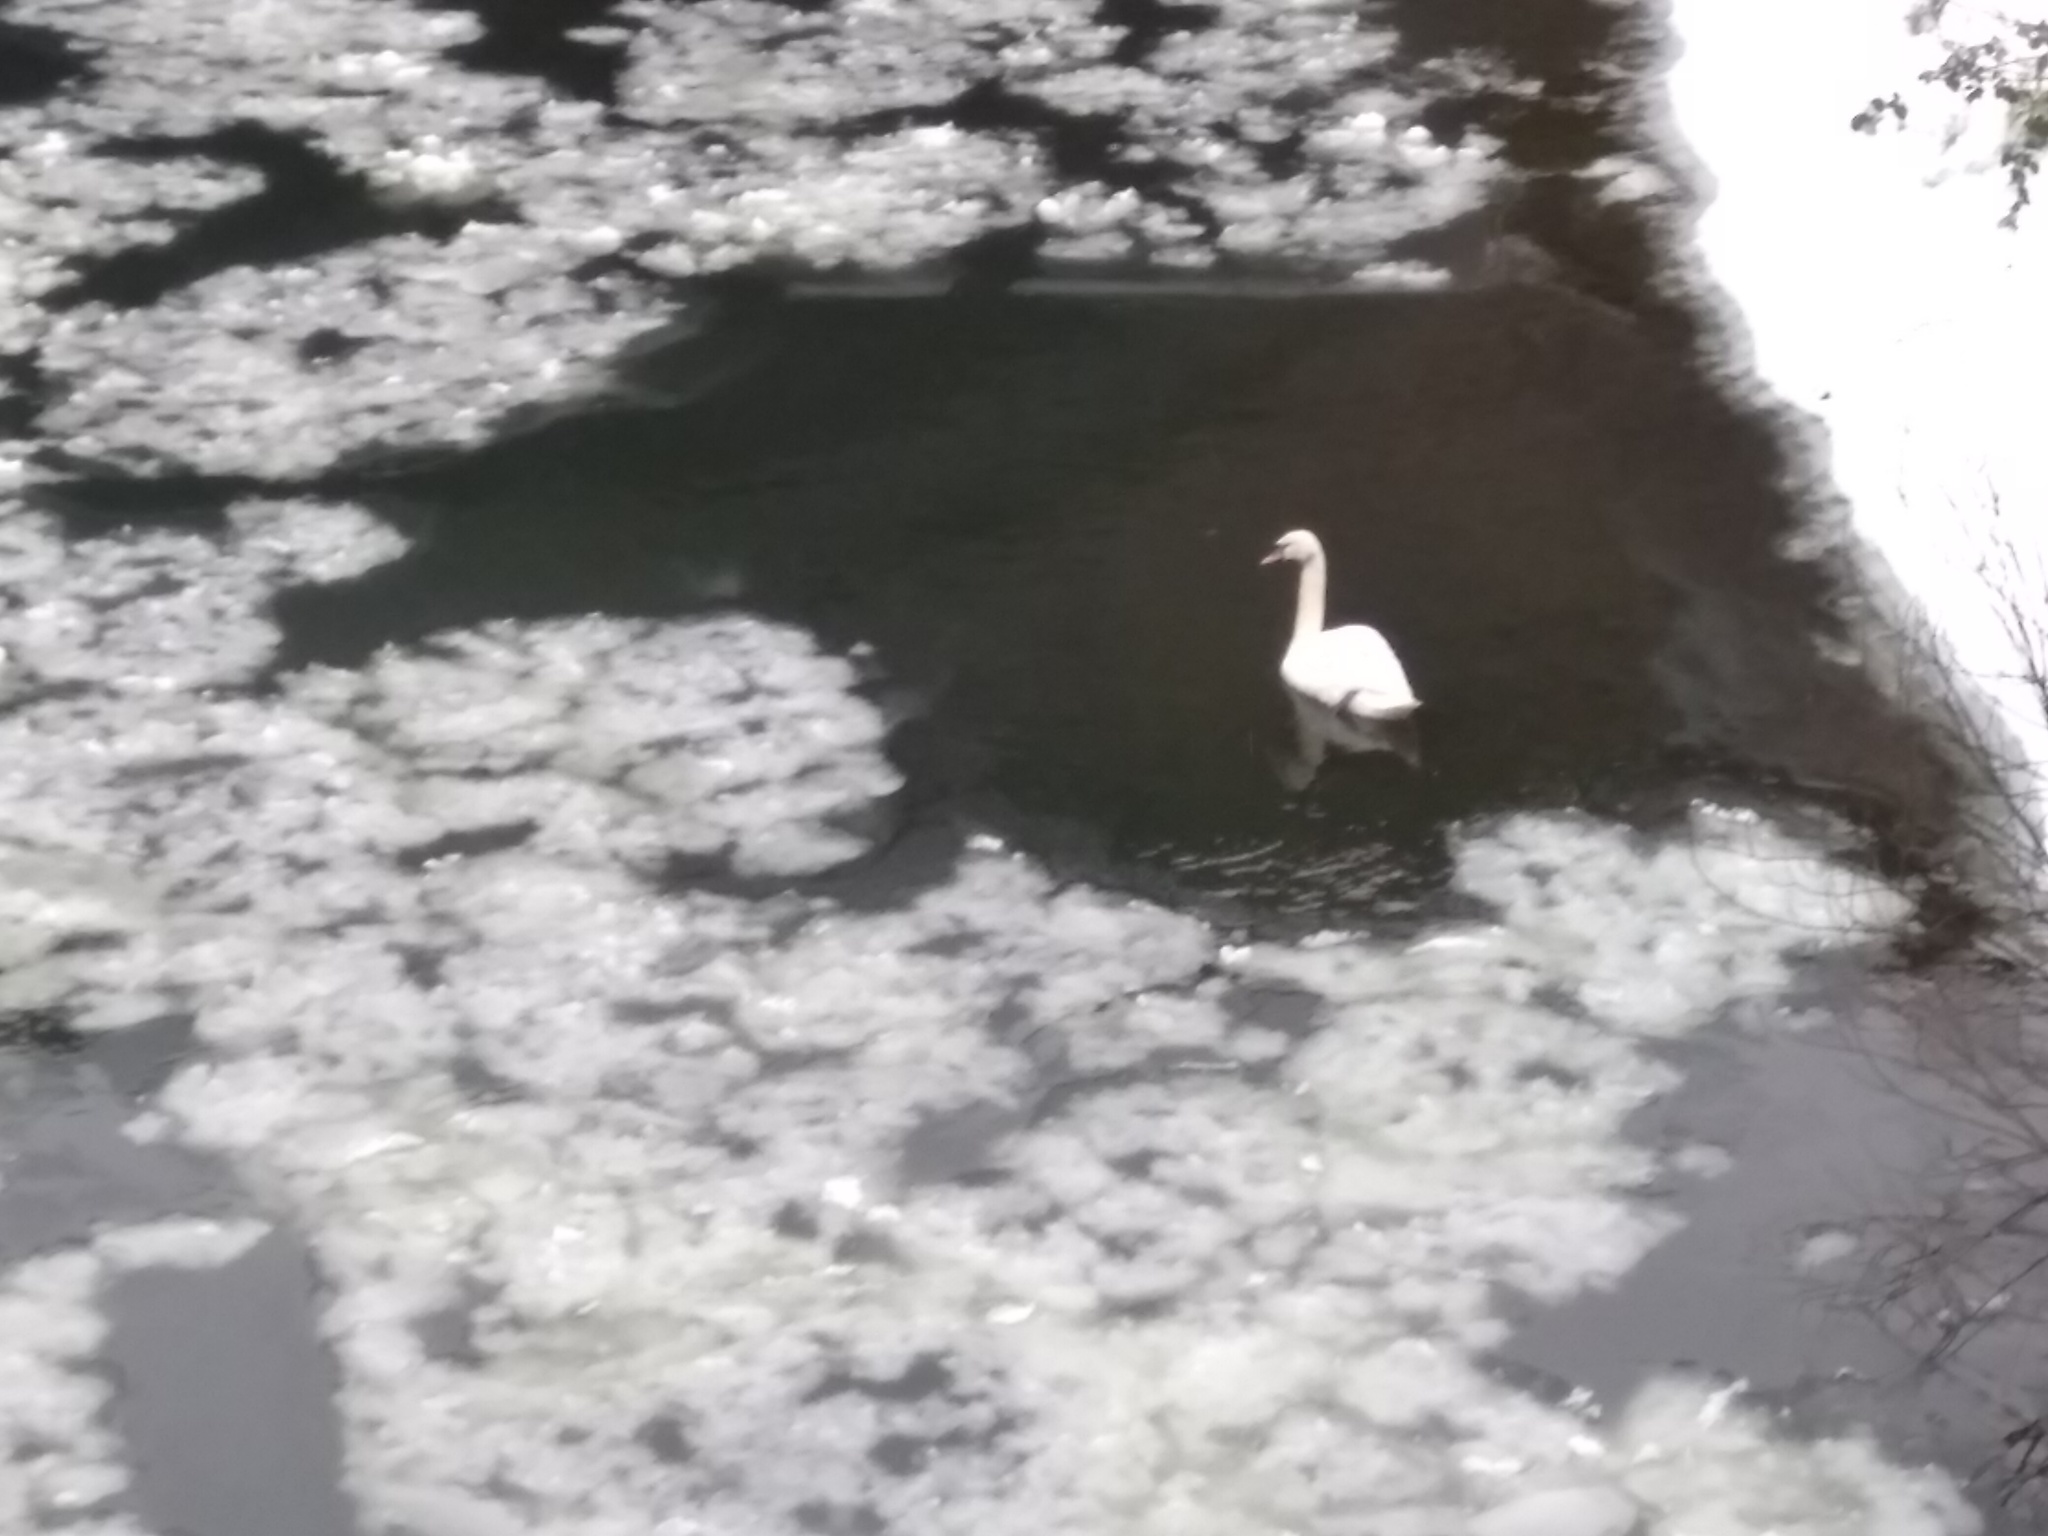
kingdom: Animalia
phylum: Chordata
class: Aves
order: Anseriformes
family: Anatidae
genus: Cygnus
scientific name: Cygnus olor
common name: Mute swan
